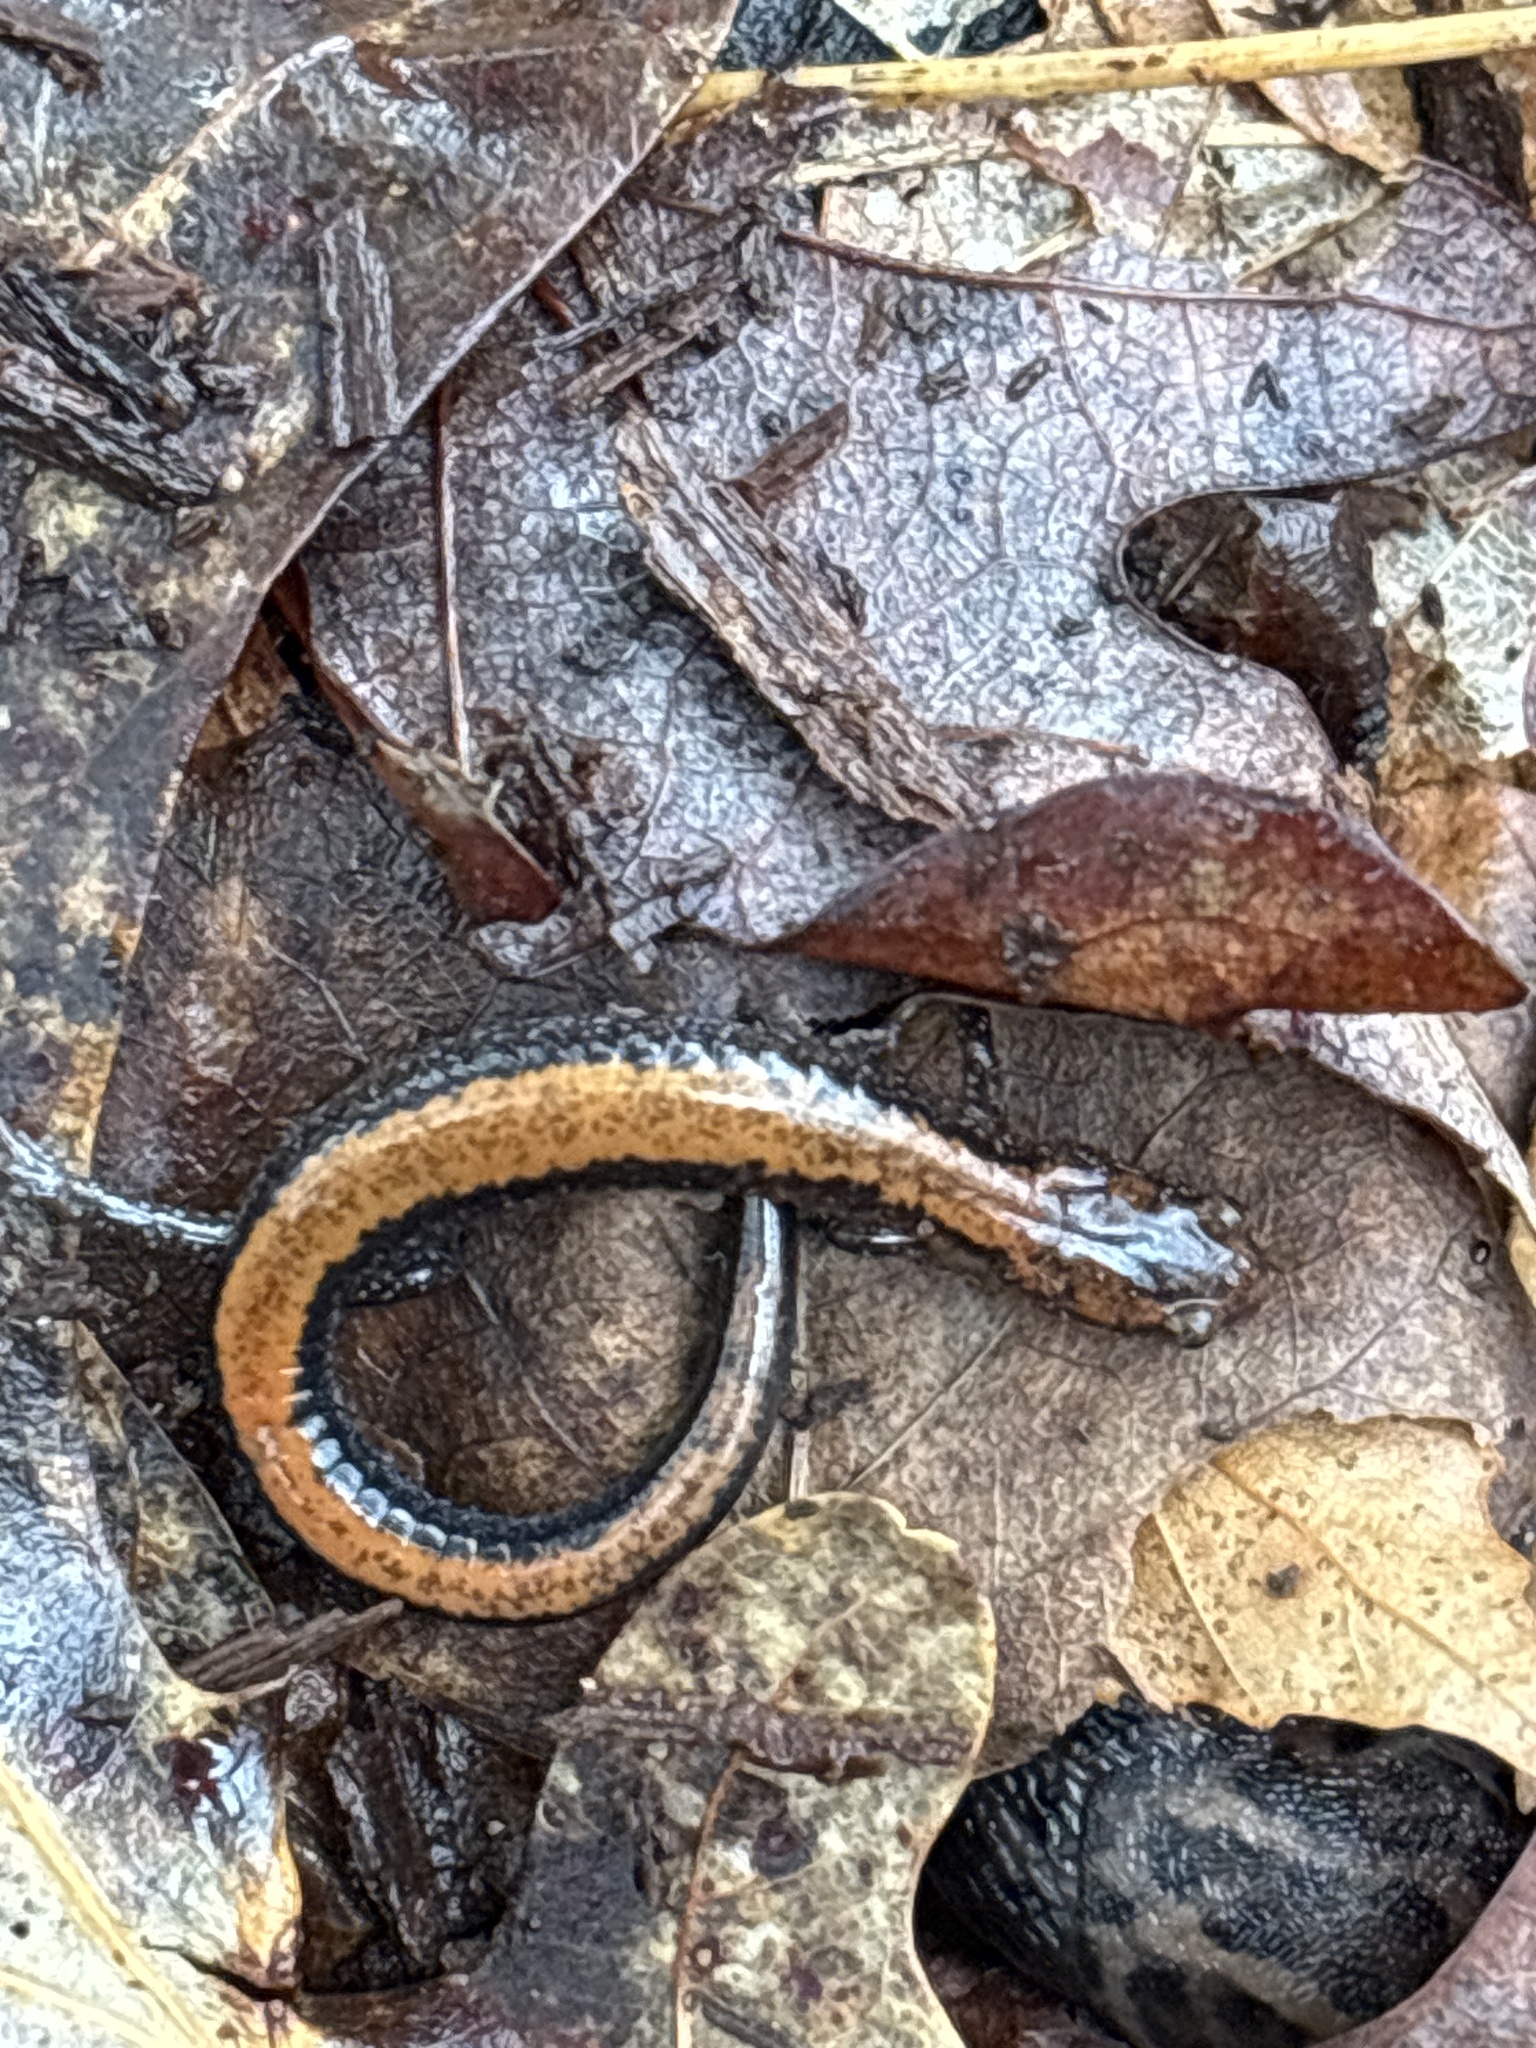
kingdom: Animalia
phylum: Chordata
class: Amphibia
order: Caudata
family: Plethodontidae
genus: Plethodon
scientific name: Plethodon cinereus
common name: Redback salamander
